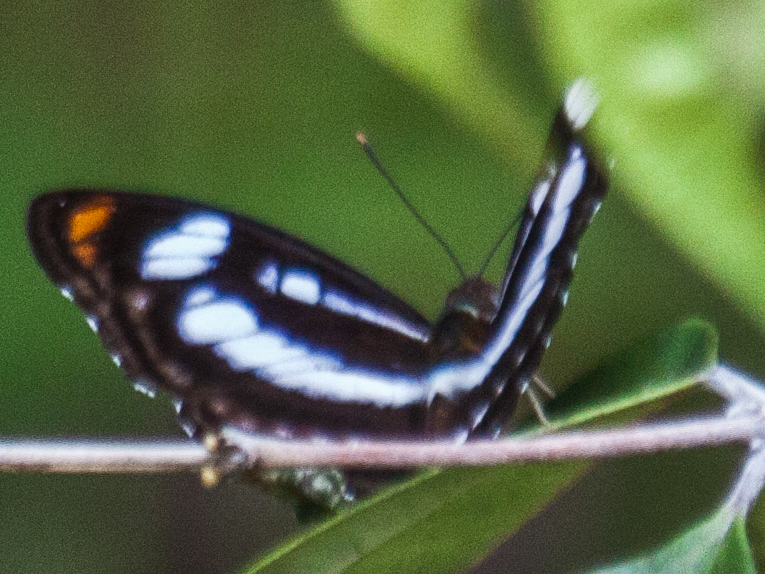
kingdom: Animalia
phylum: Arthropoda
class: Insecta
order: Lepidoptera
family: Nymphalidae
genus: Parathyma
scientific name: Parathyma nefte
